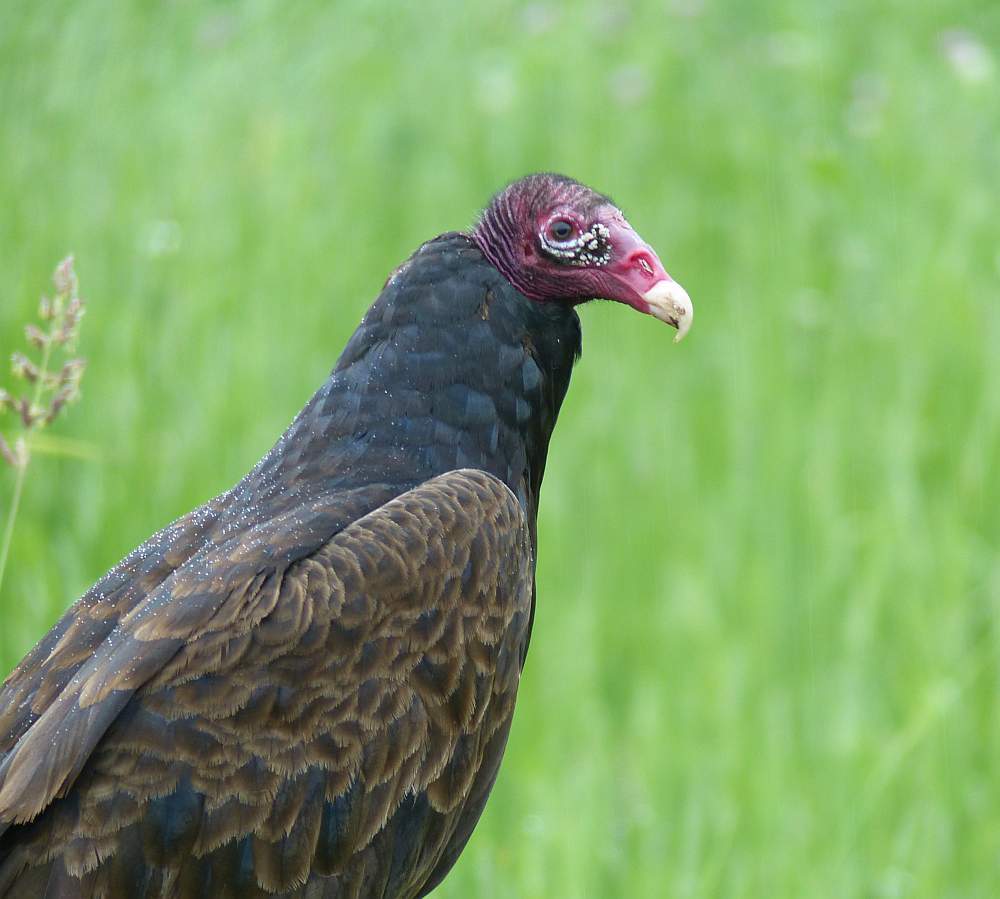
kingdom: Animalia
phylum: Chordata
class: Aves
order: Accipitriformes
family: Cathartidae
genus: Cathartes
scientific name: Cathartes aura
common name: Turkey vulture
